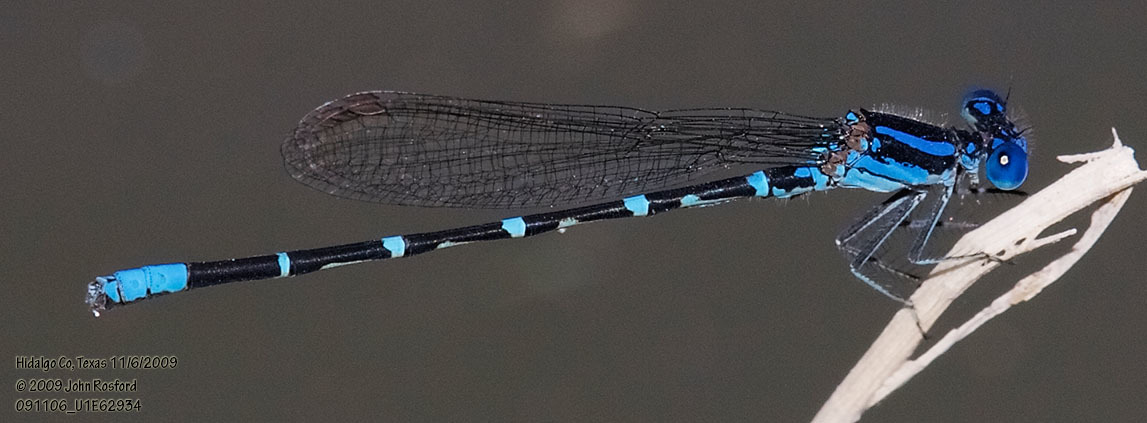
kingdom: Animalia
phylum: Arthropoda
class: Insecta
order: Odonata
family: Coenagrionidae
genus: Argia
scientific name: Argia sedula
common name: Blue-ringed dancer
